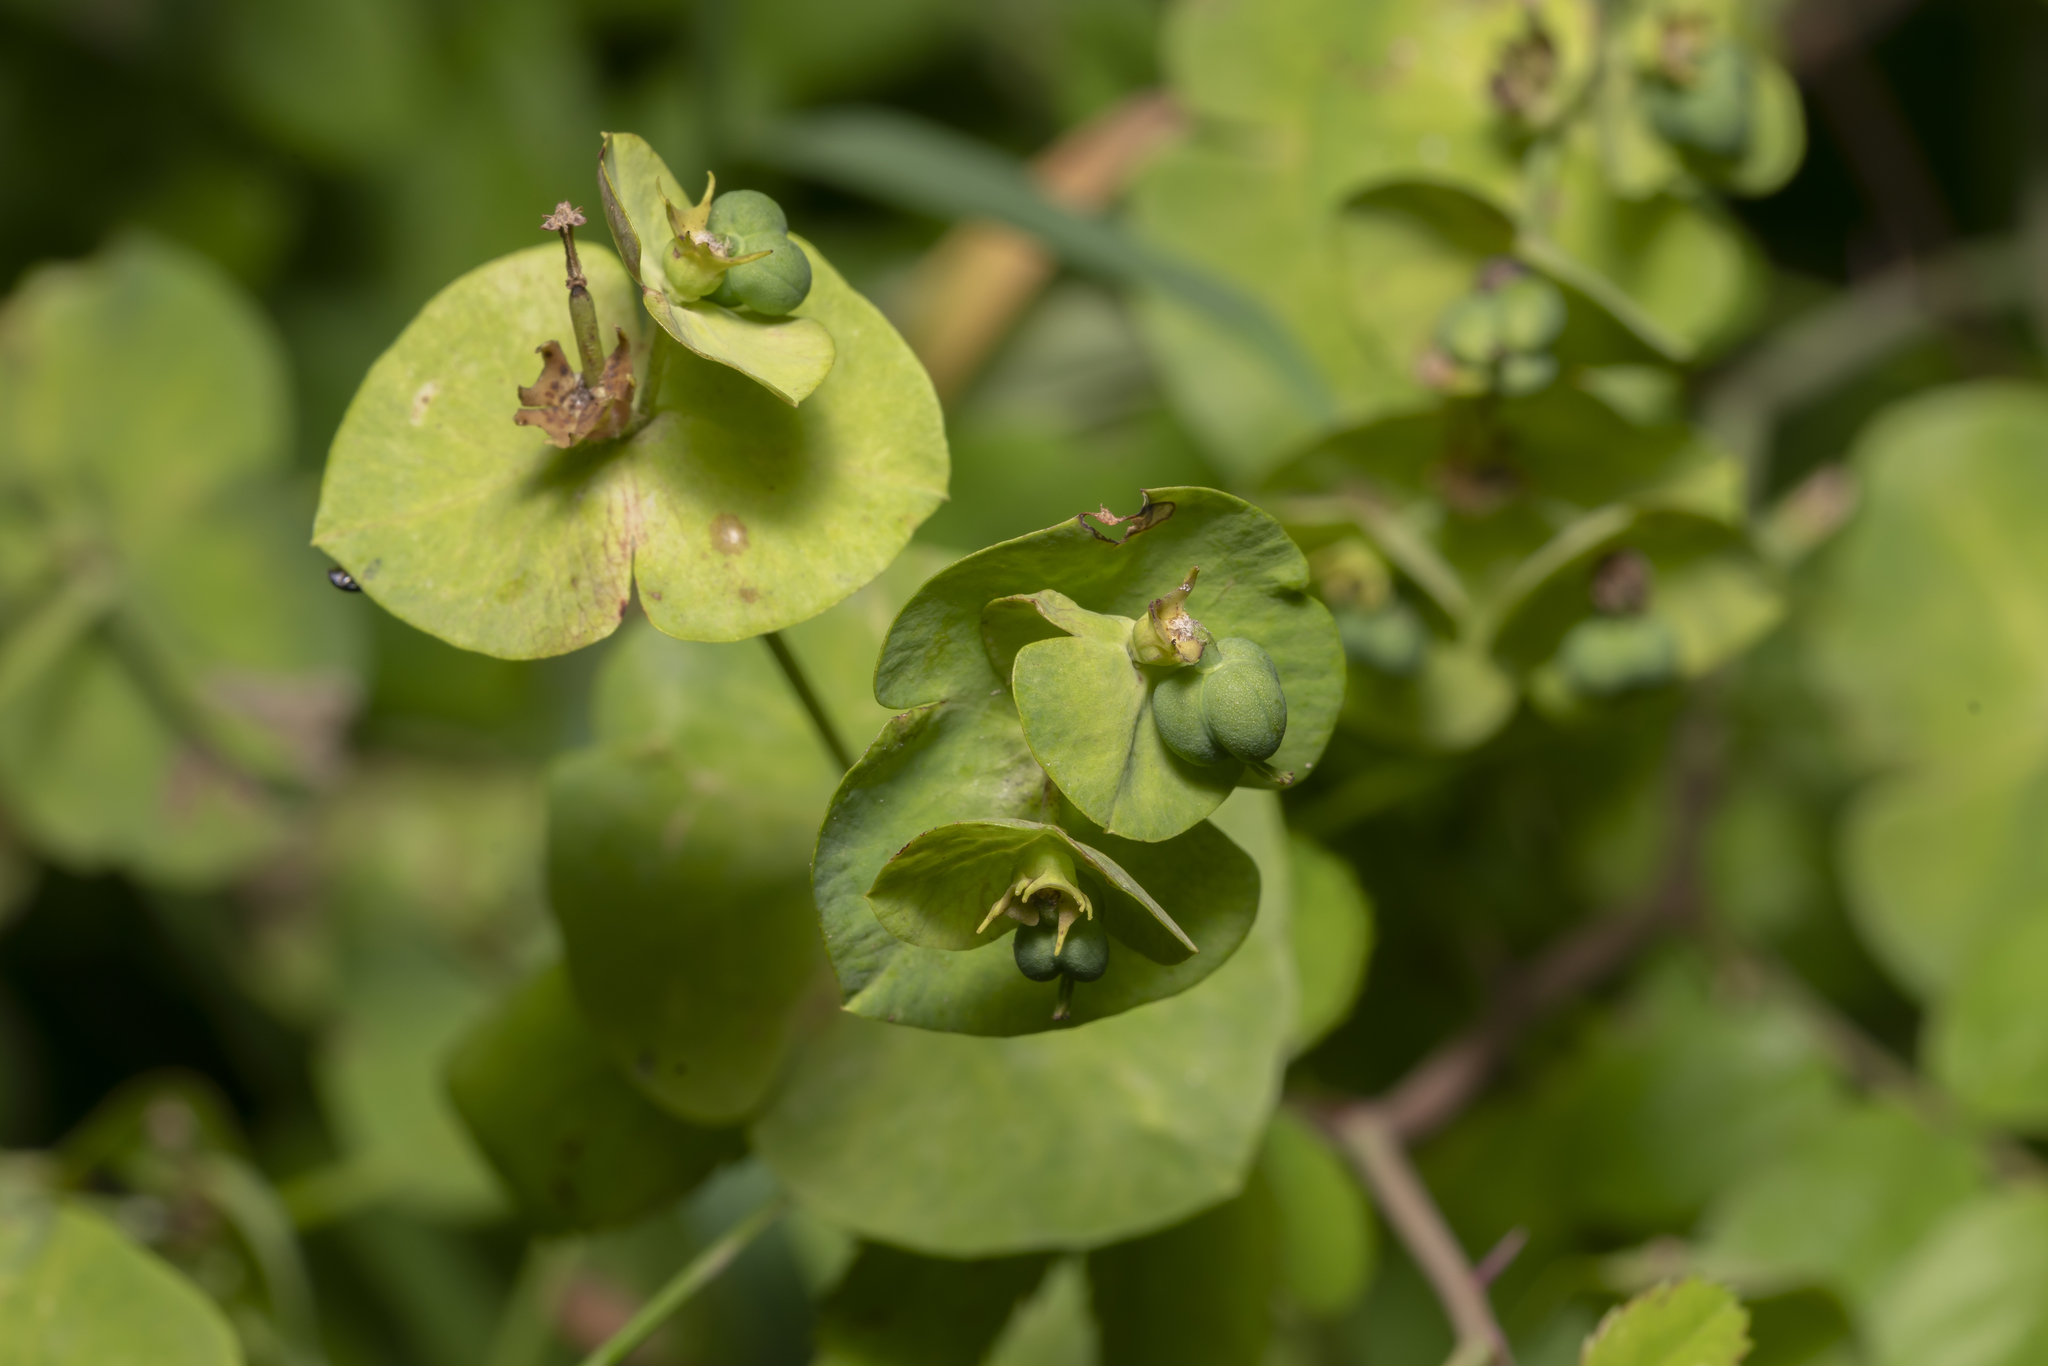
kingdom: Plantae
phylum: Tracheophyta
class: Magnoliopsida
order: Malpighiales
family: Euphorbiaceae
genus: Euphorbia
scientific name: Euphorbia amygdaloides
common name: Wood spurge
